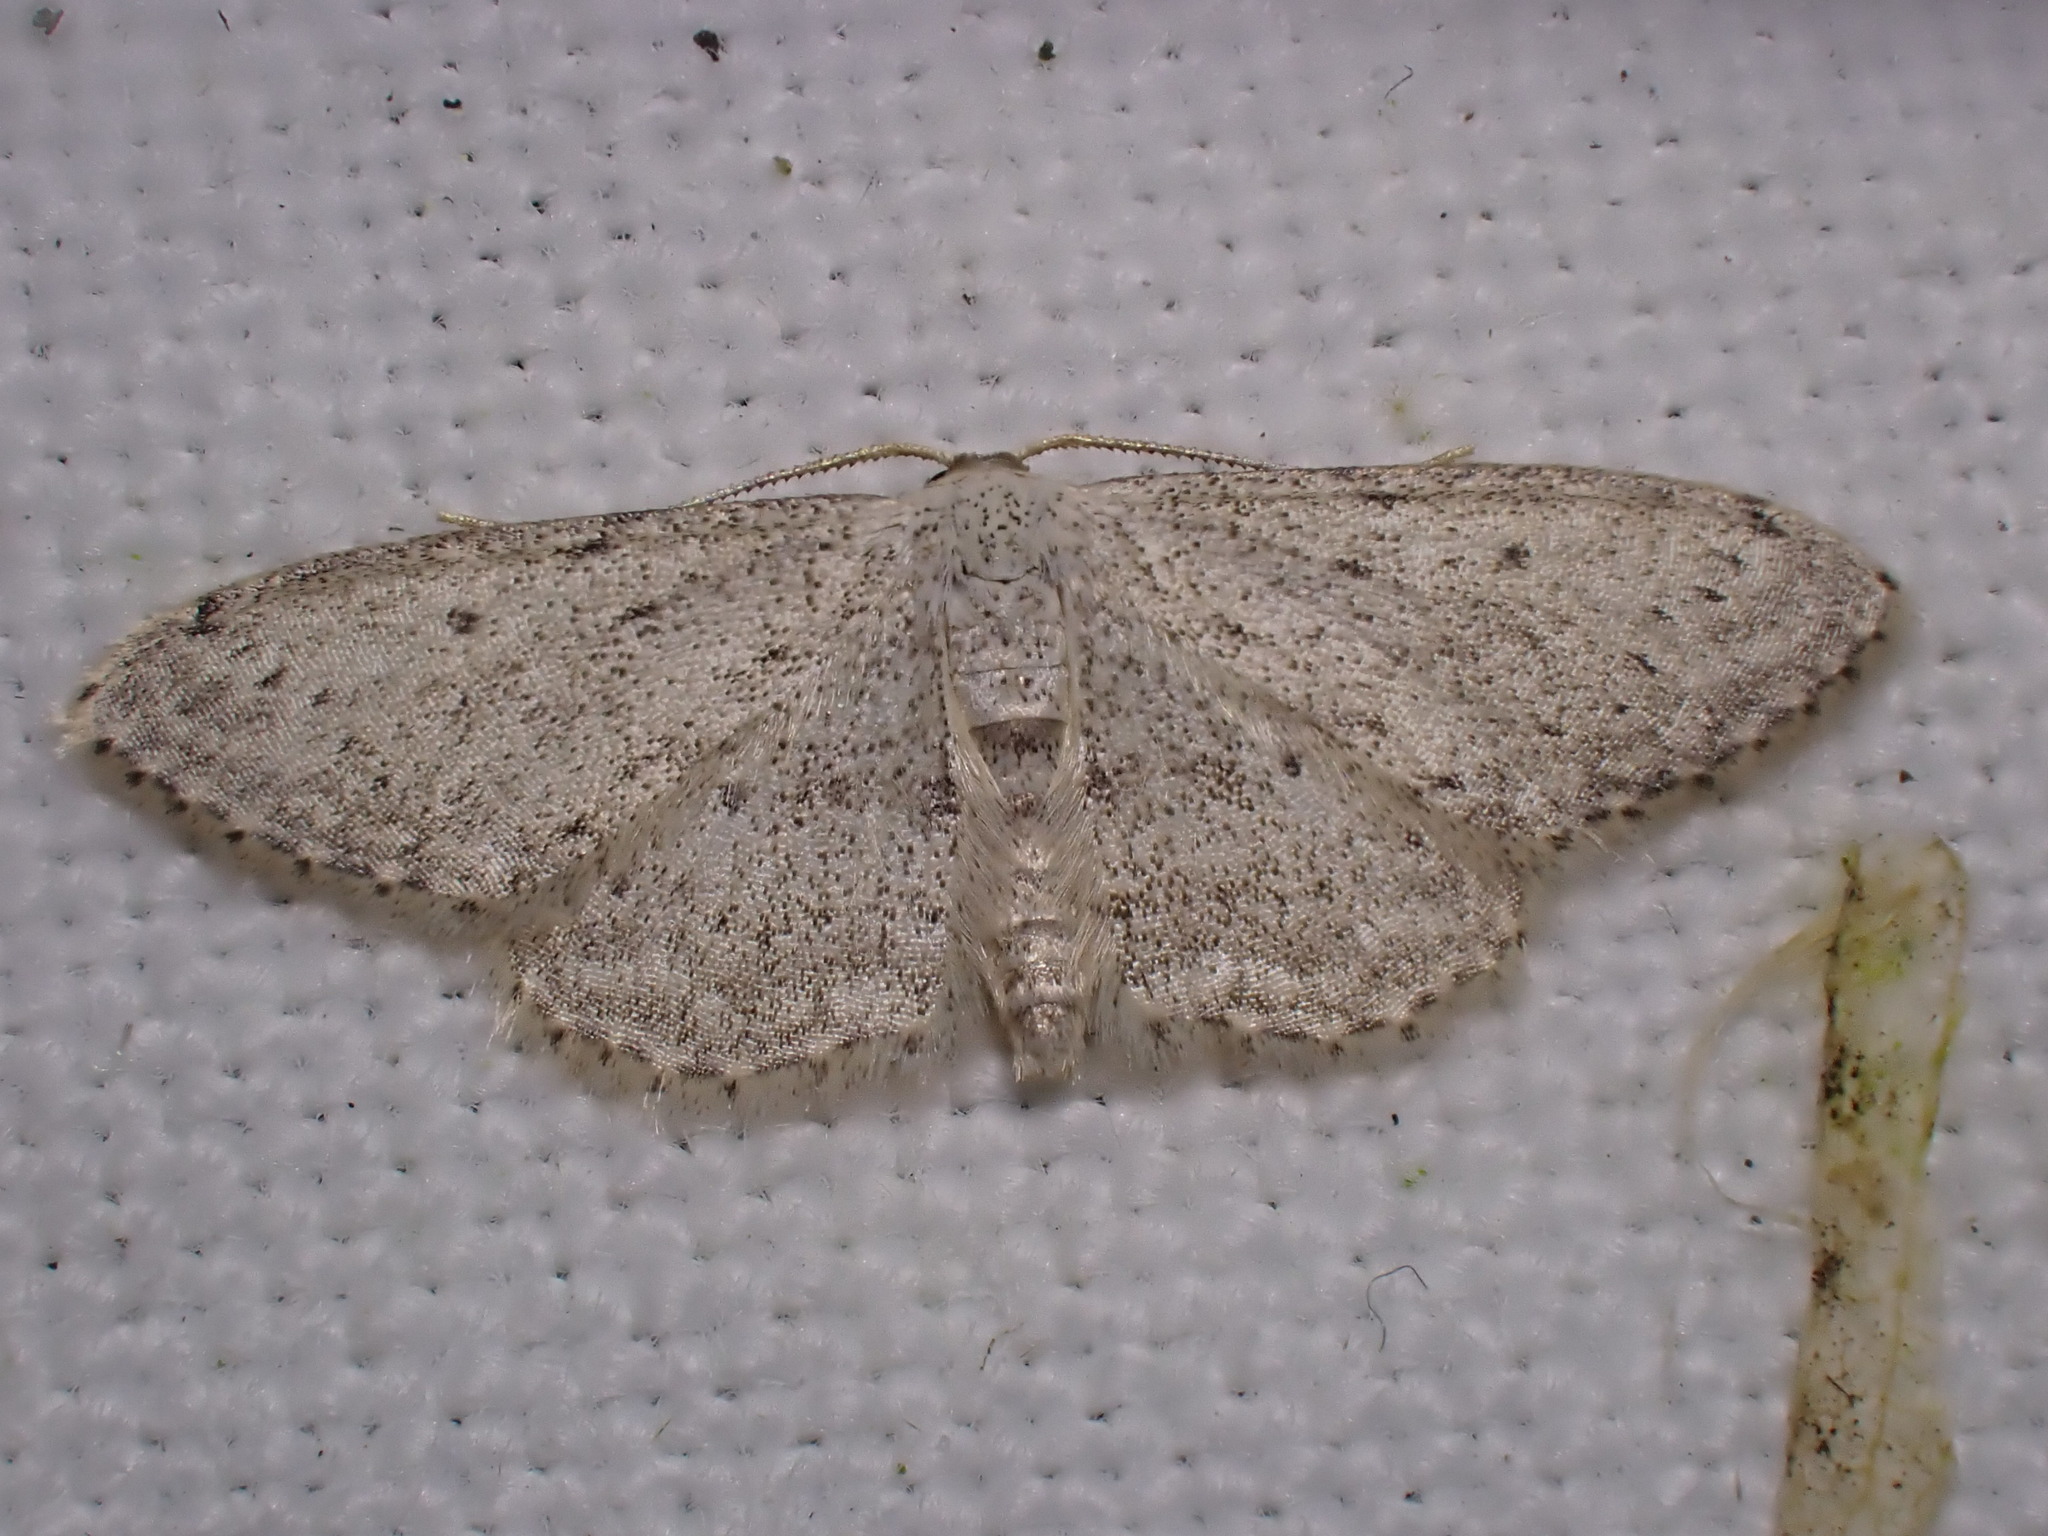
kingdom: Animalia
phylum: Arthropoda
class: Insecta
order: Lepidoptera
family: Geometridae
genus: Idaea
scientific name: Idaea seriata
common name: Small dusty wave
